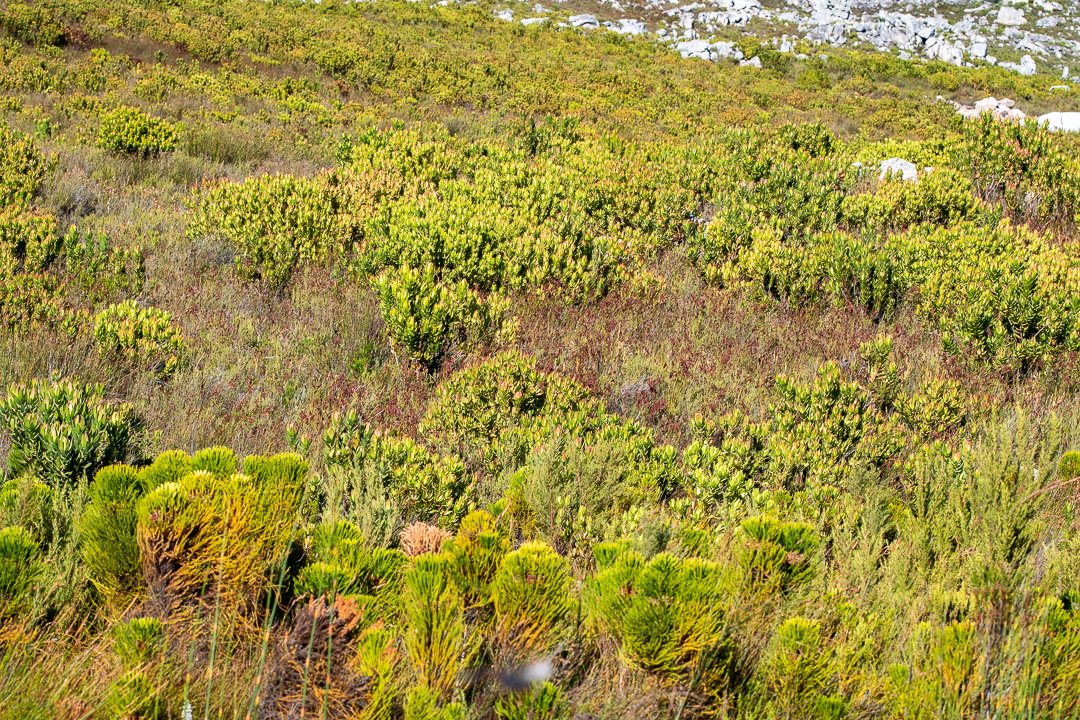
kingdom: Plantae
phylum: Tracheophyta
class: Magnoliopsida
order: Proteales
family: Proteaceae
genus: Leucadendron
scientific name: Leucadendron gandogeri
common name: Broad-leaf conebush
